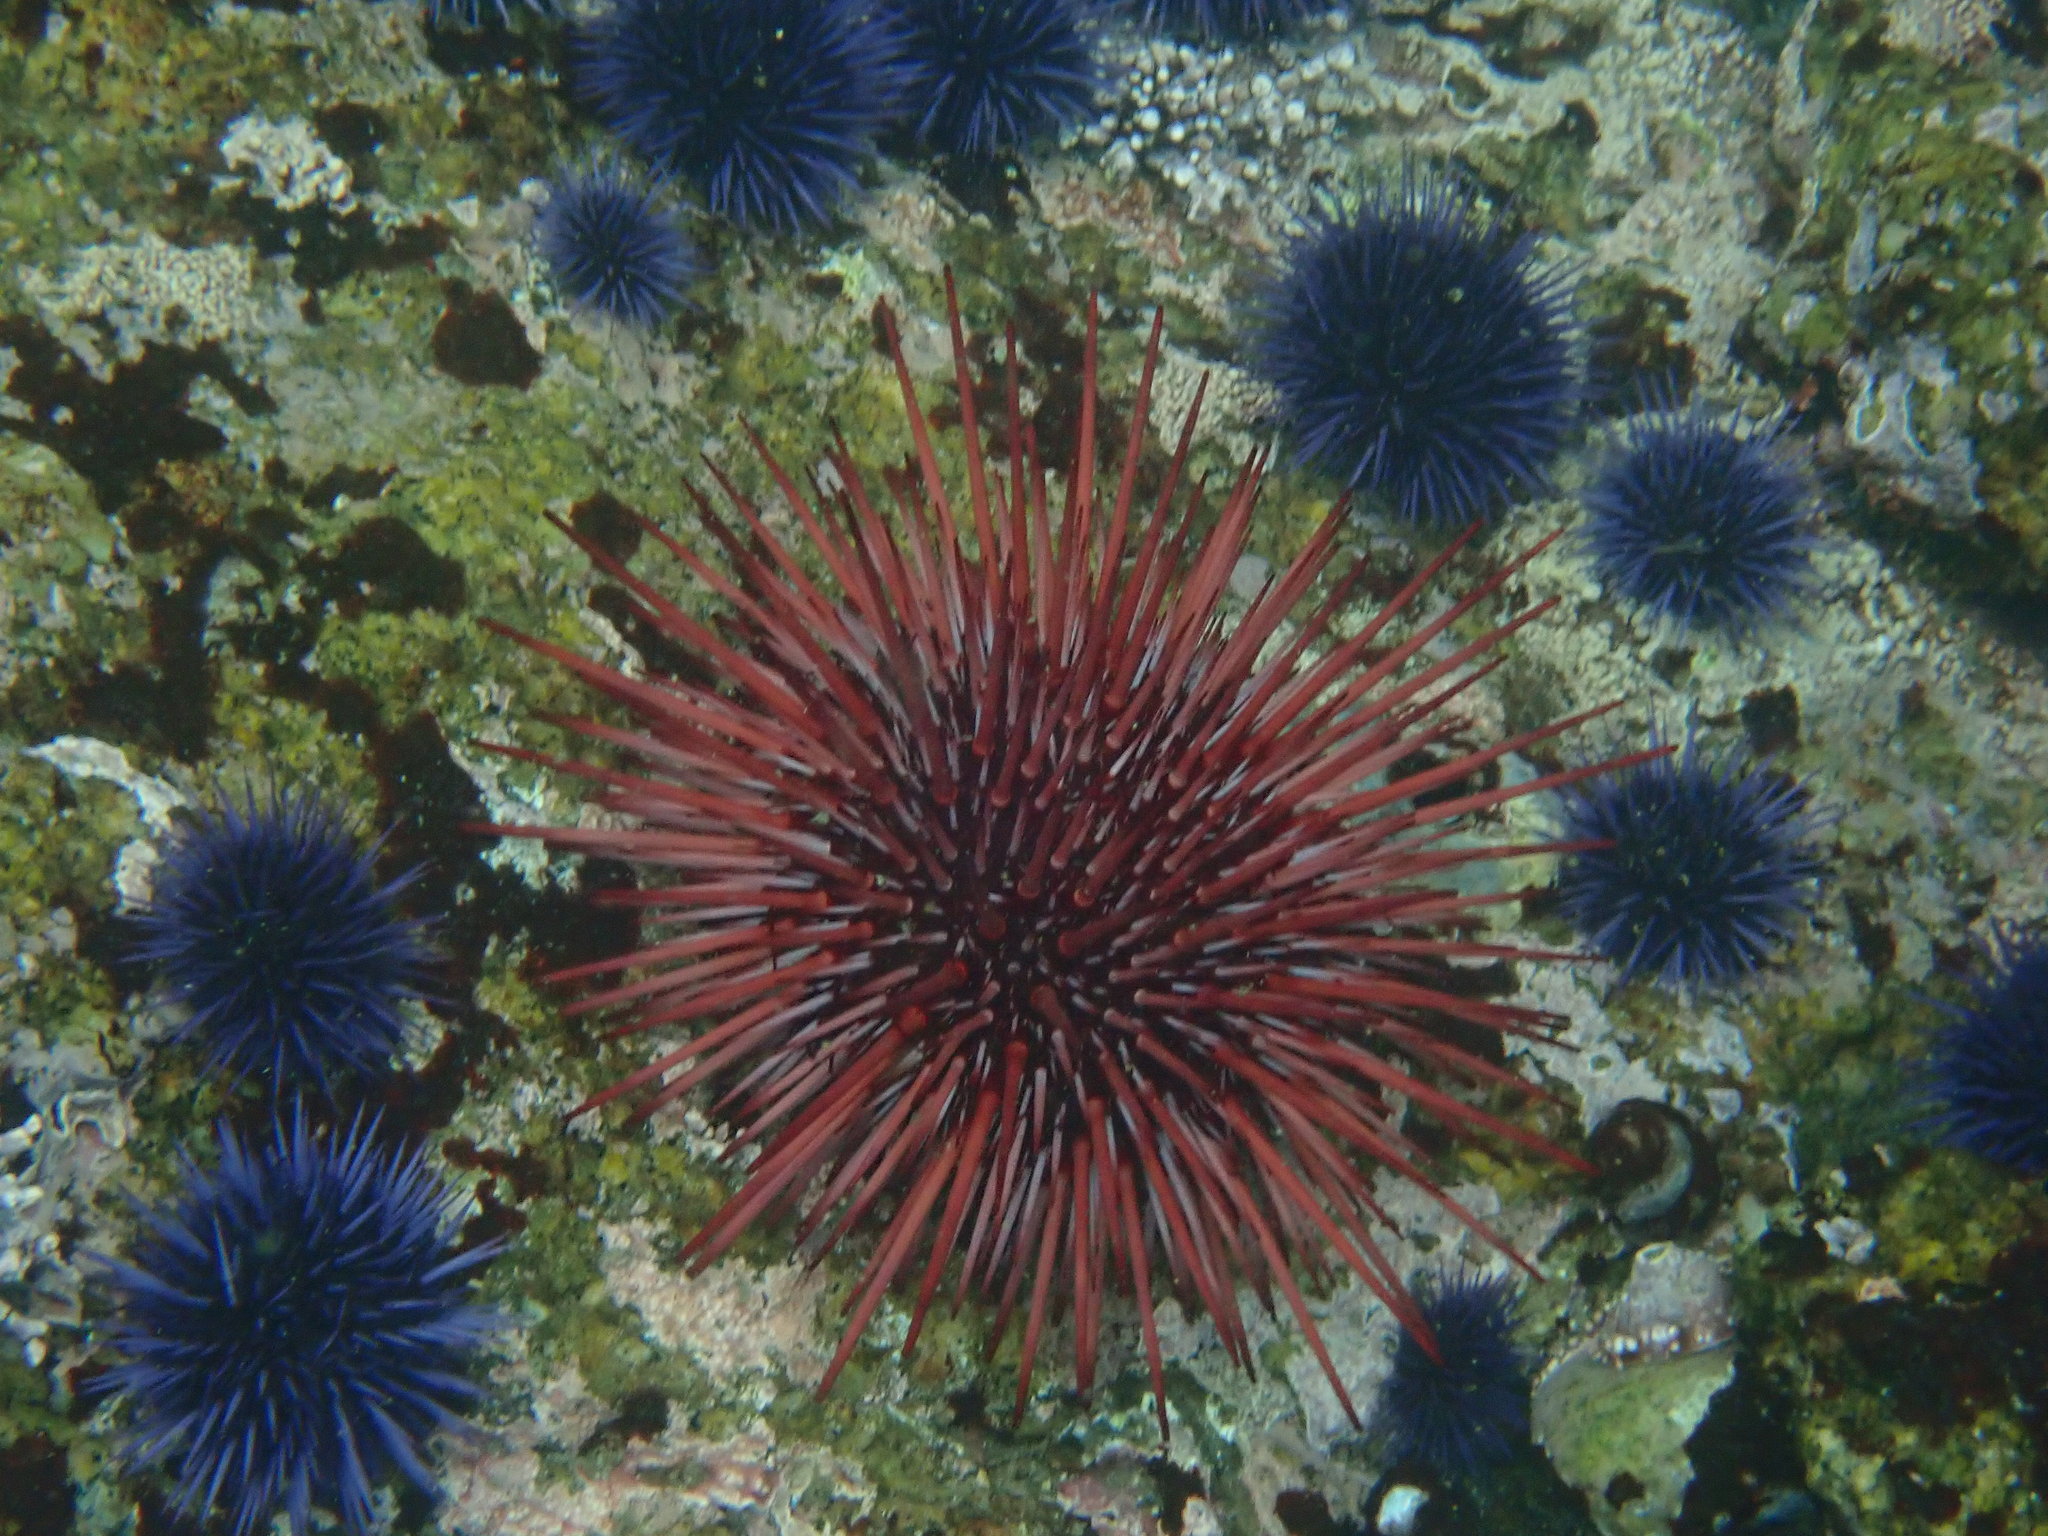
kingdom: Animalia
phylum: Echinodermata
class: Echinoidea
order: Camarodonta
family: Strongylocentrotidae
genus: Mesocentrotus
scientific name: Mesocentrotus franciscanus
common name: Red sea urchin
